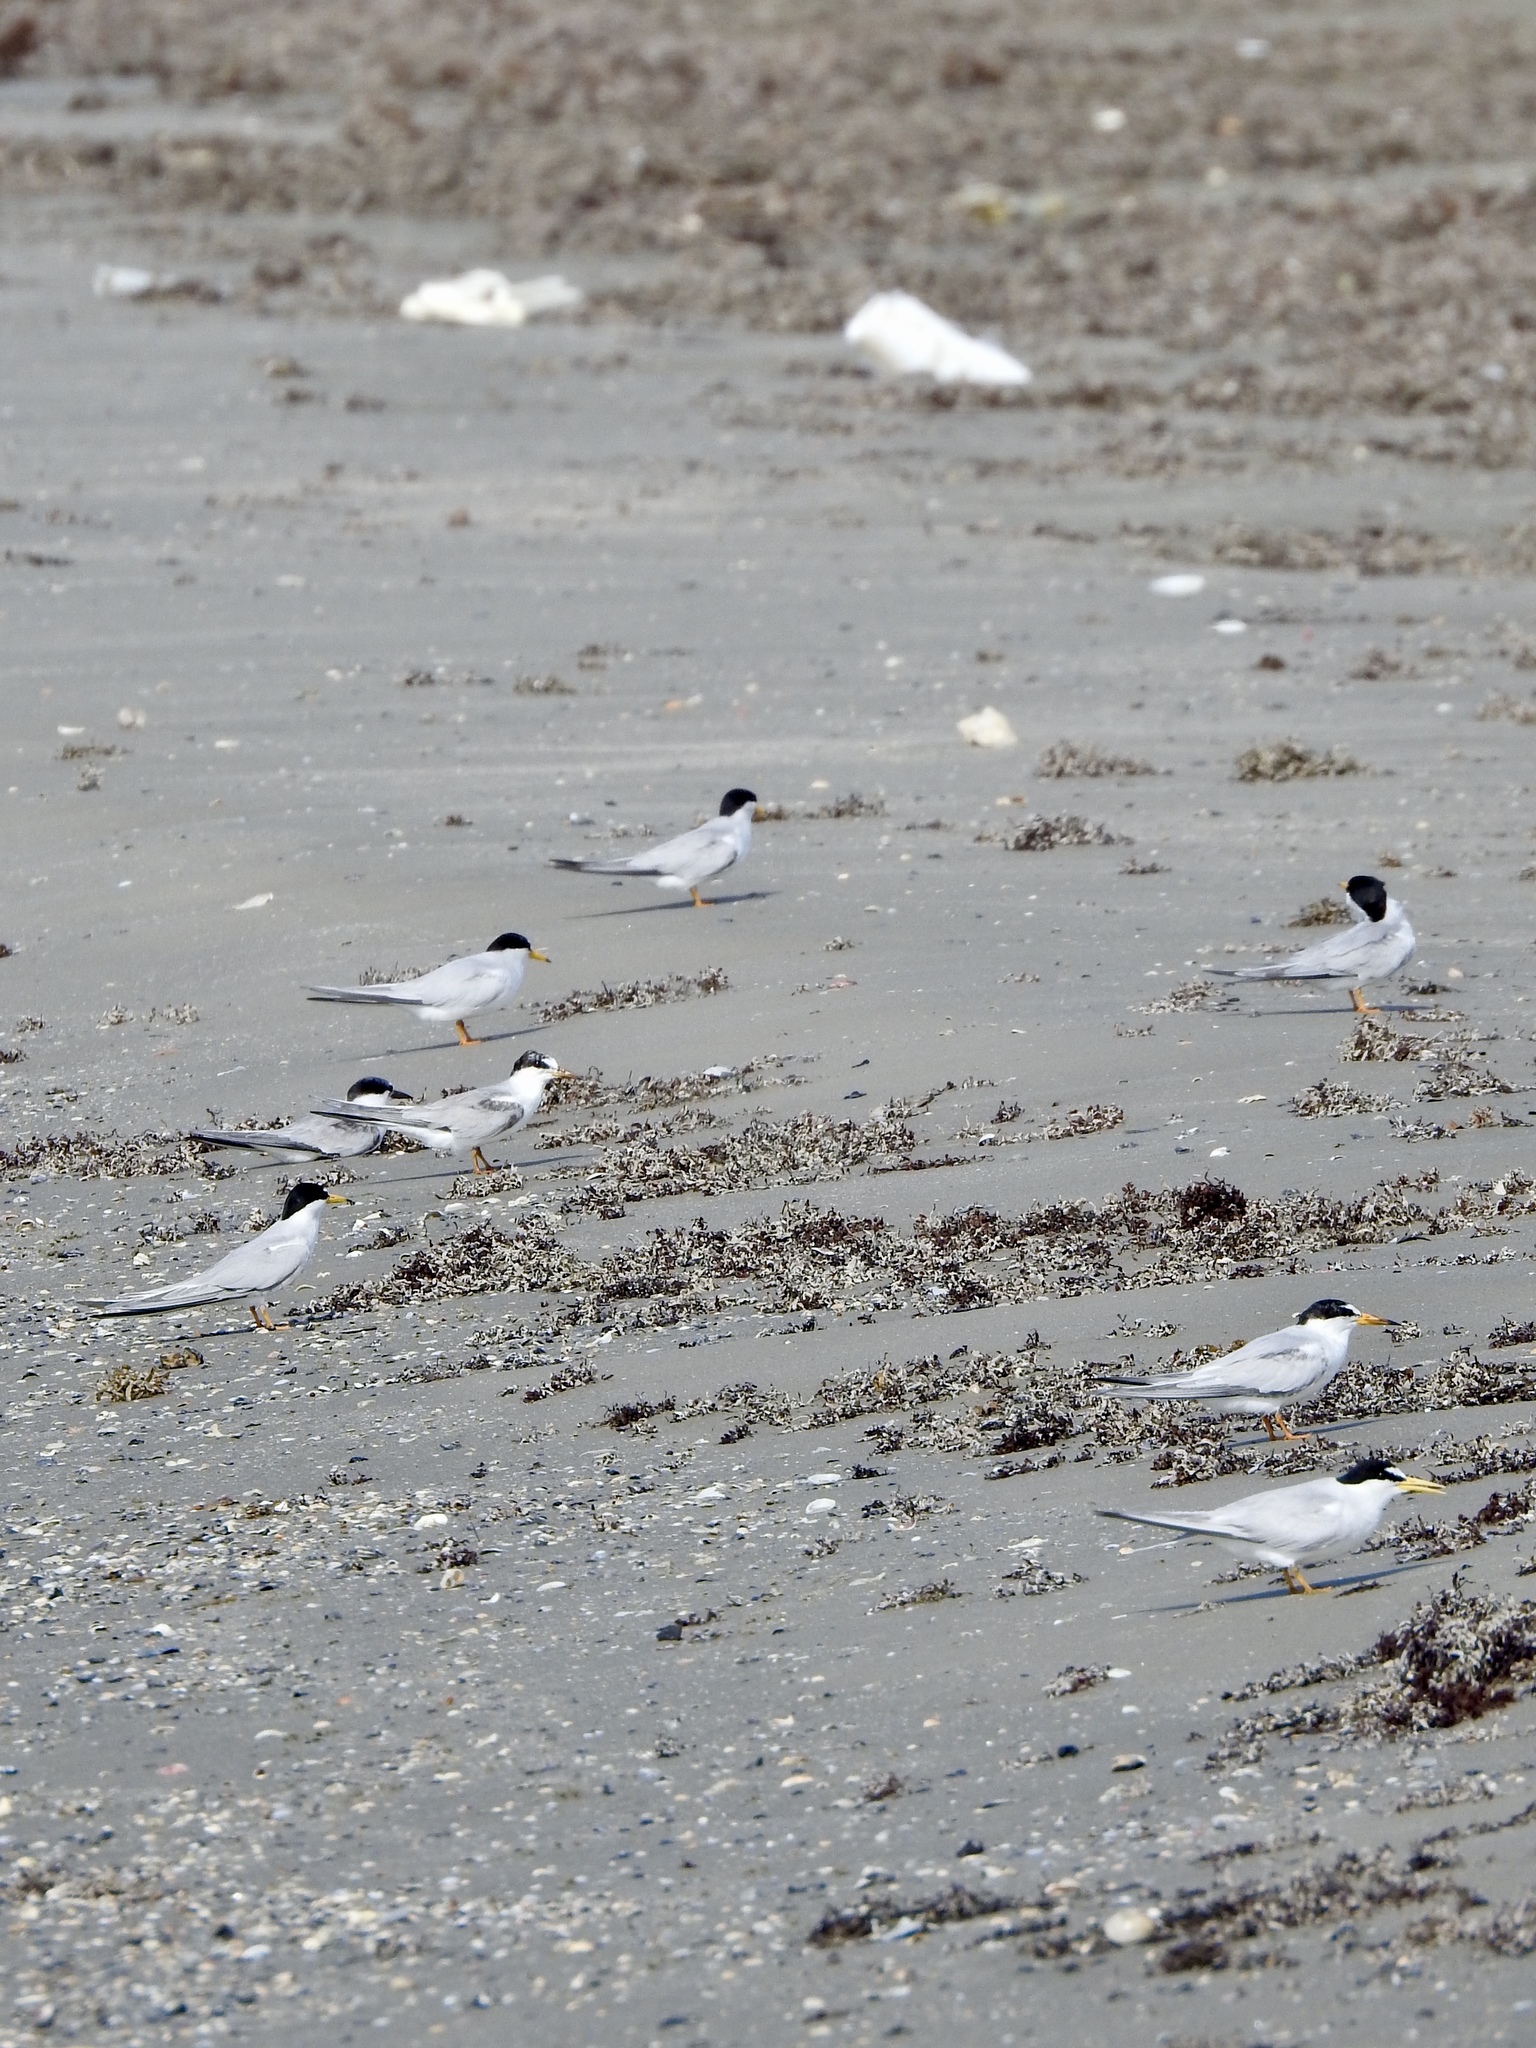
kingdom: Animalia
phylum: Chordata
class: Aves
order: Charadriiformes
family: Laridae
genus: Sternula
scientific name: Sternula antillarum
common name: Least tern
